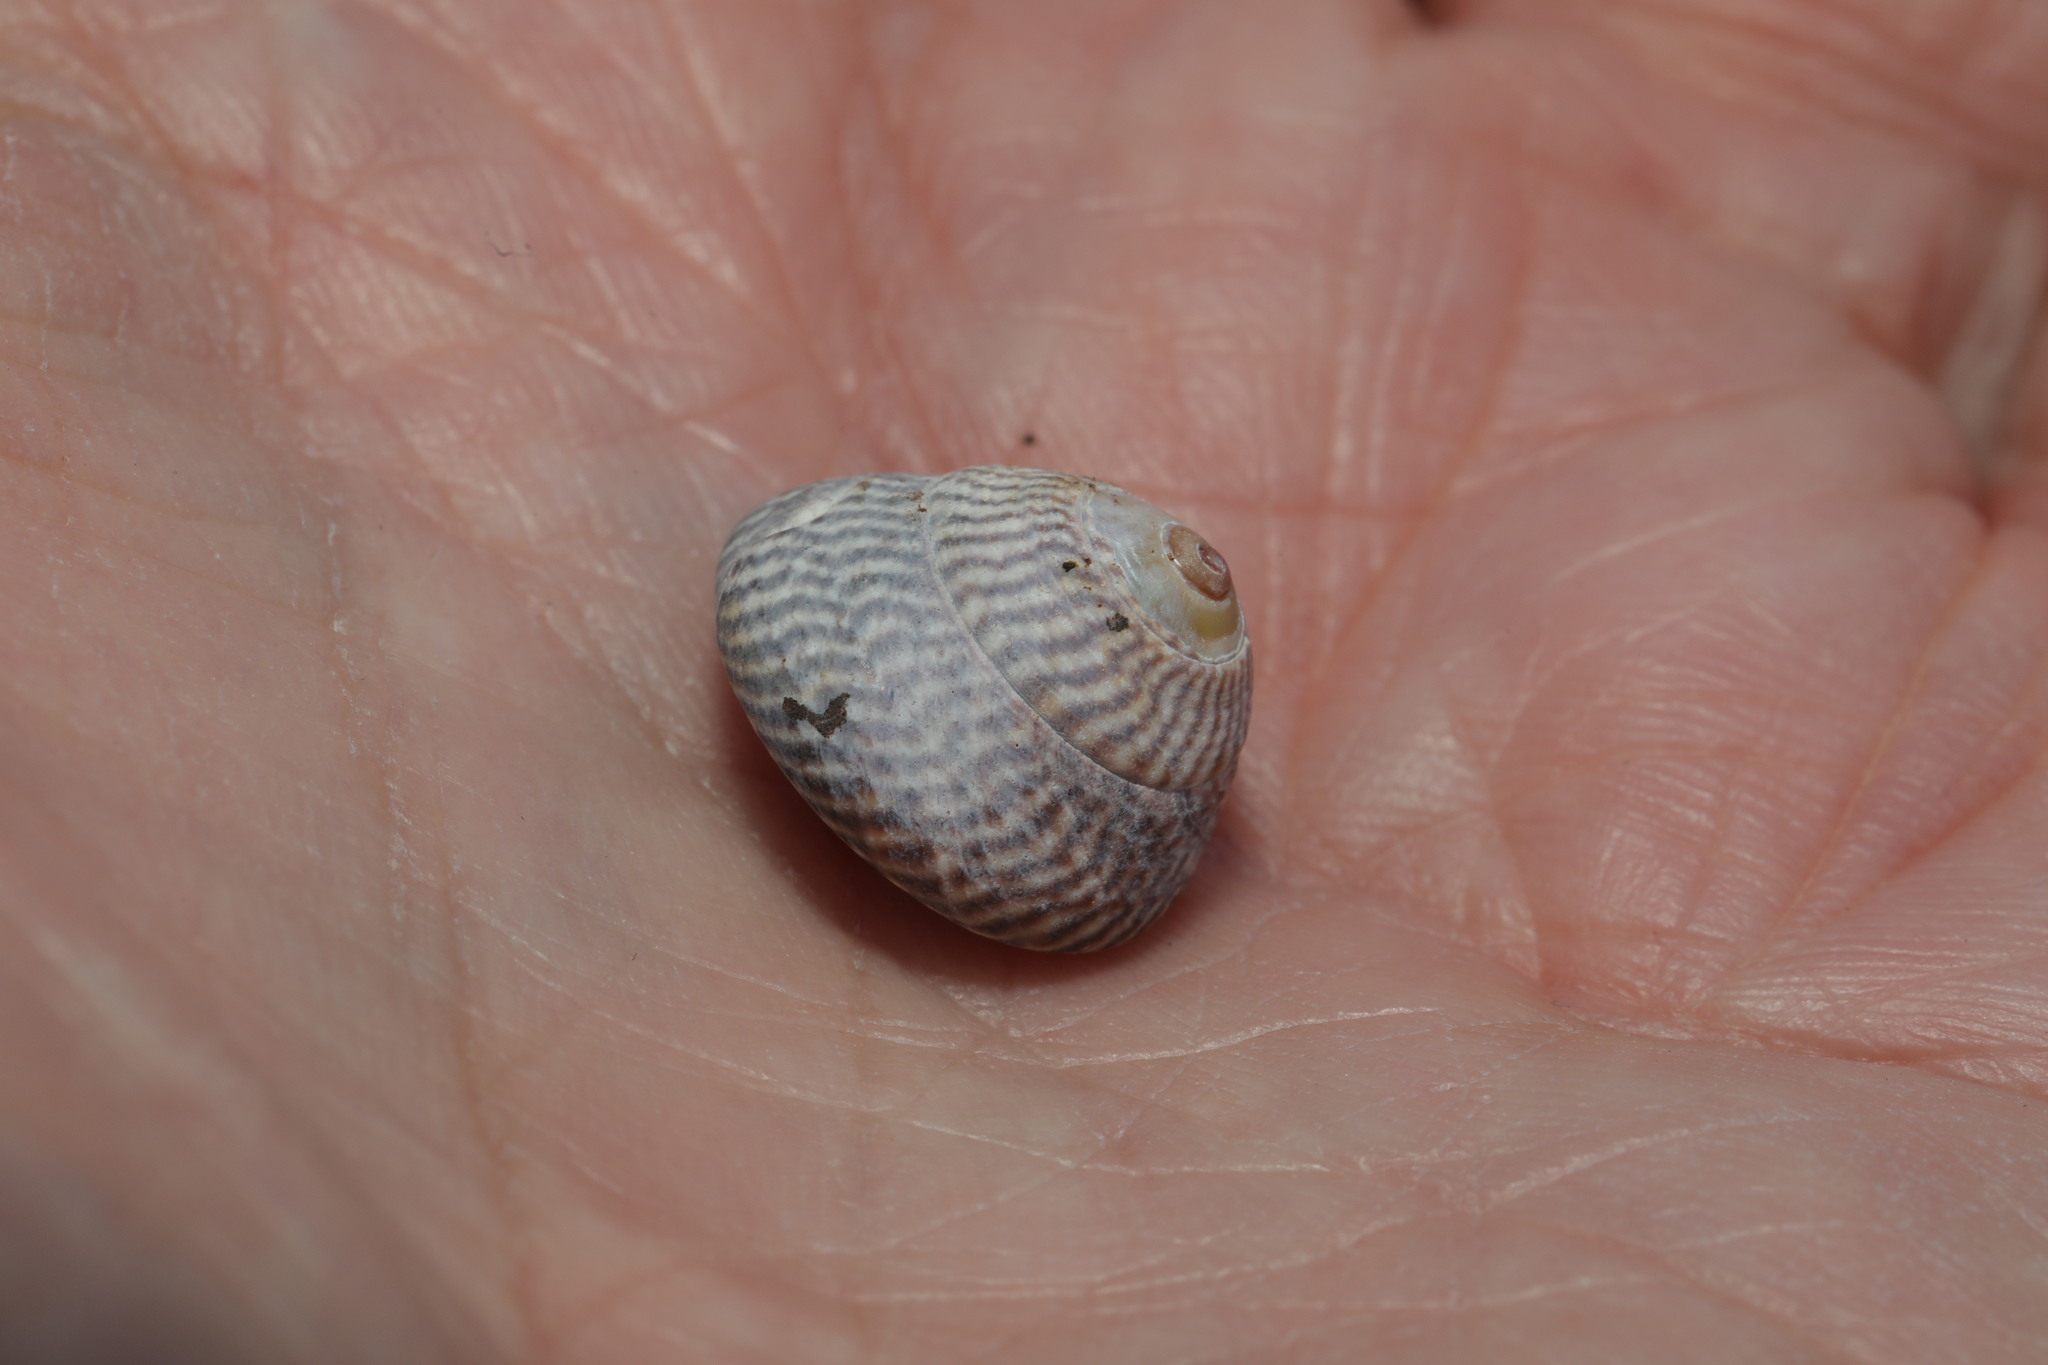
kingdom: Animalia
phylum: Mollusca
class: Gastropoda
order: Trochida
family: Trochidae
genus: Steromphala
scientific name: Steromphala cineraria
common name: Grey top shell
